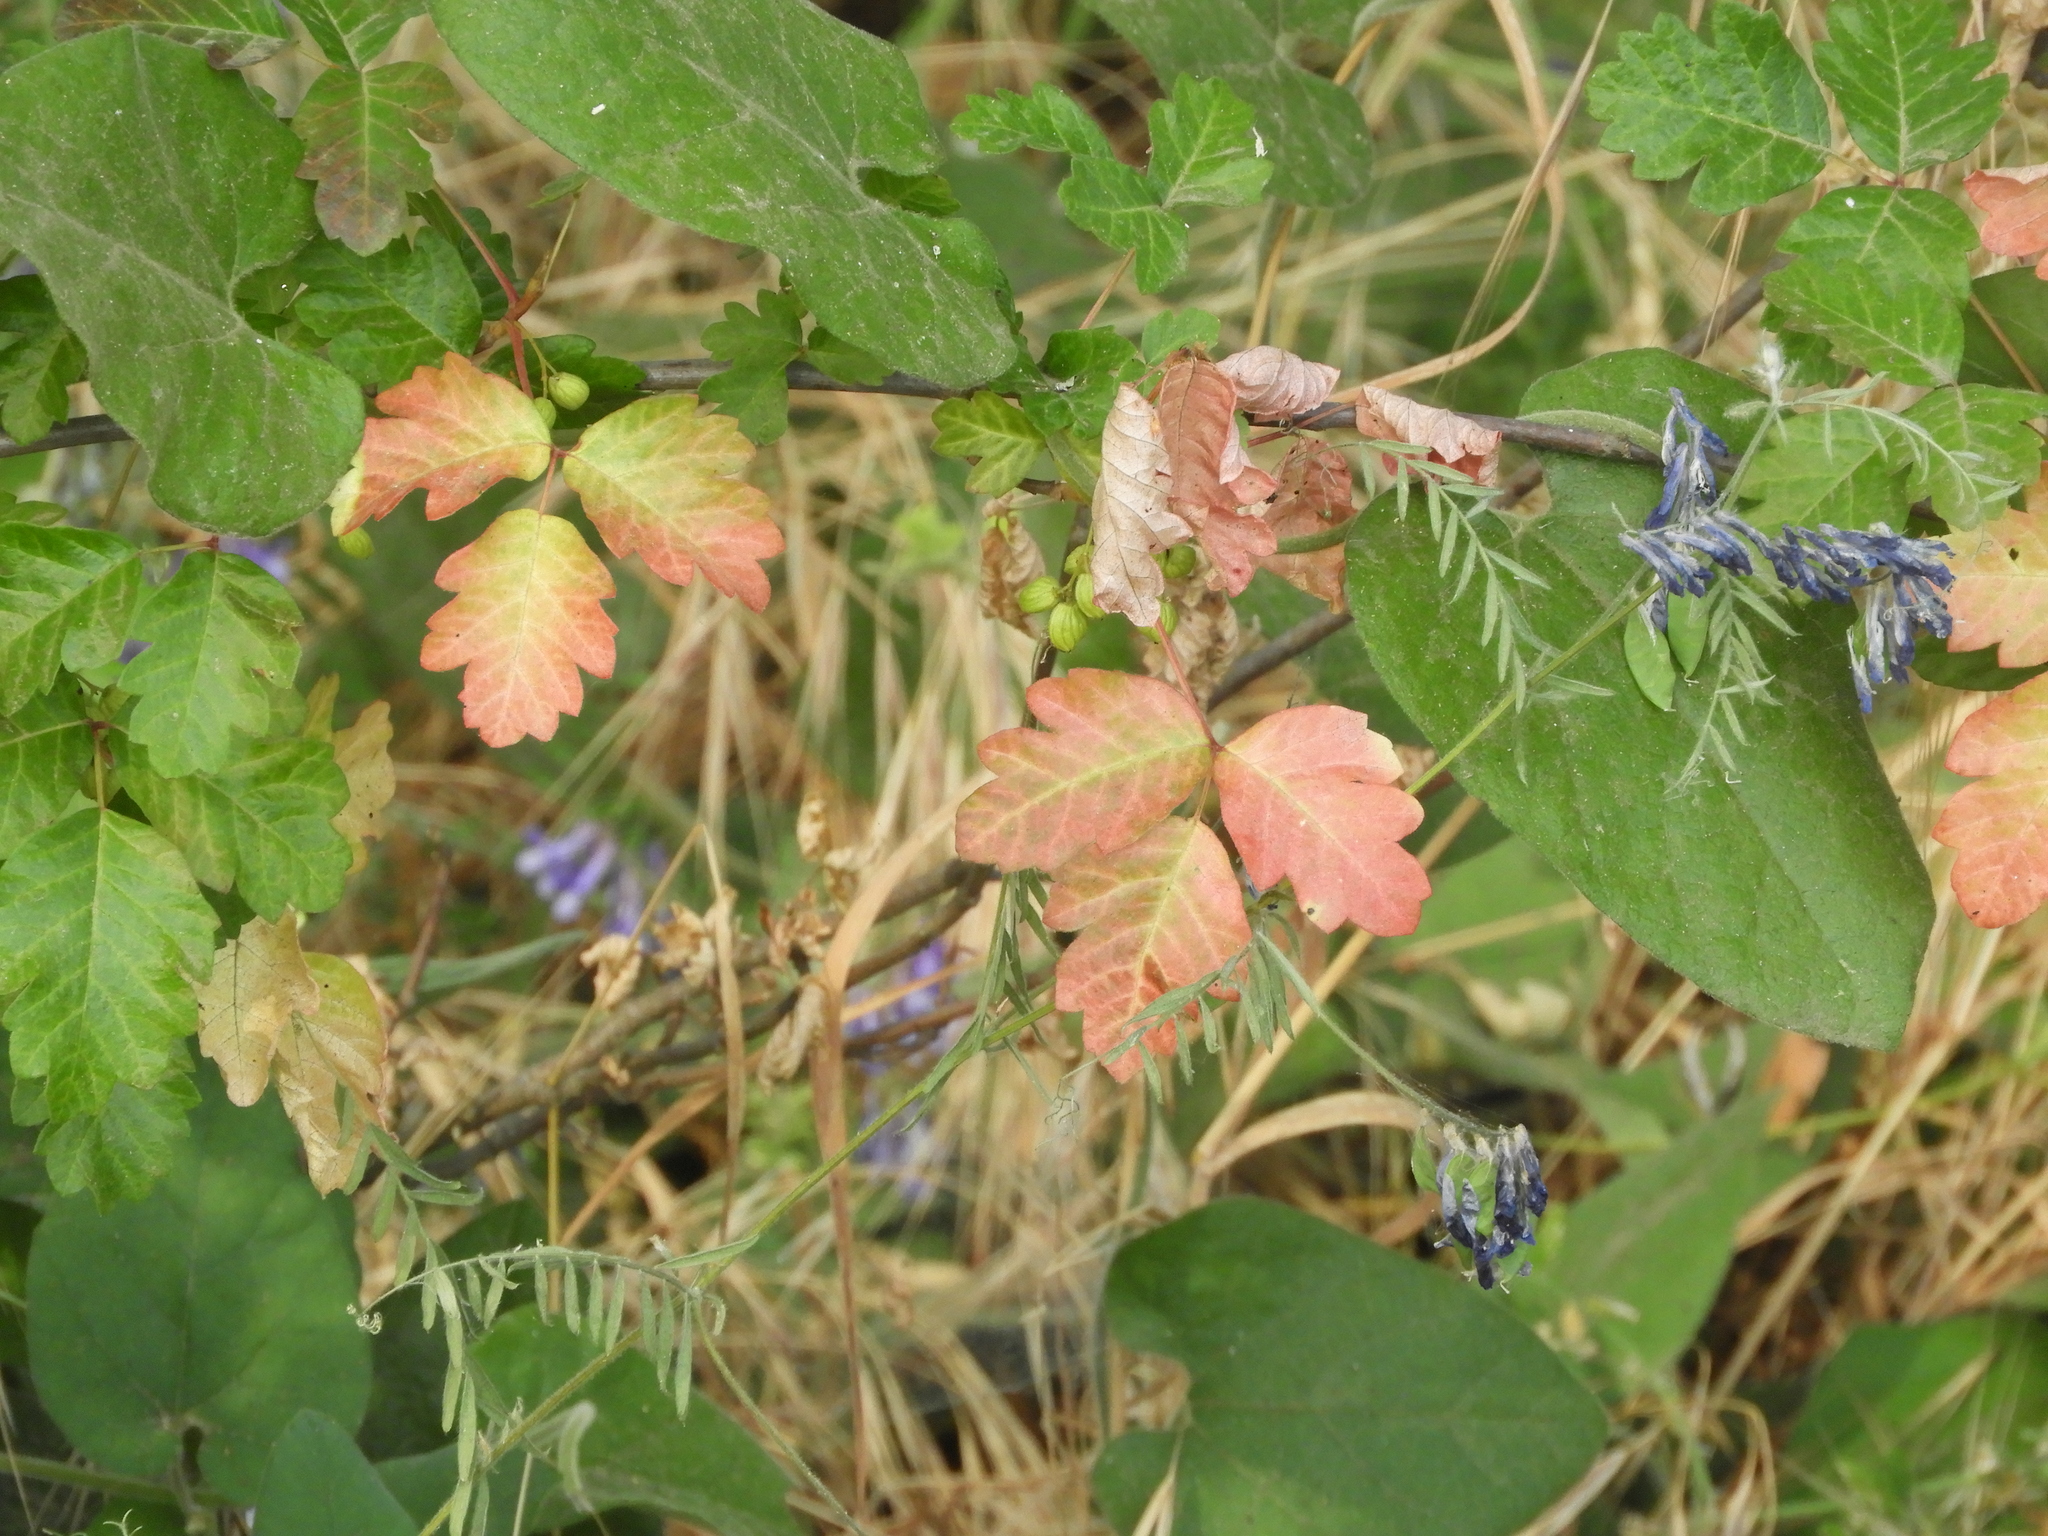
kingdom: Plantae
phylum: Tracheophyta
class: Magnoliopsida
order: Sapindales
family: Anacardiaceae
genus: Toxicodendron
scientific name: Toxicodendron diversilobum
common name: Pacific poison-oak
